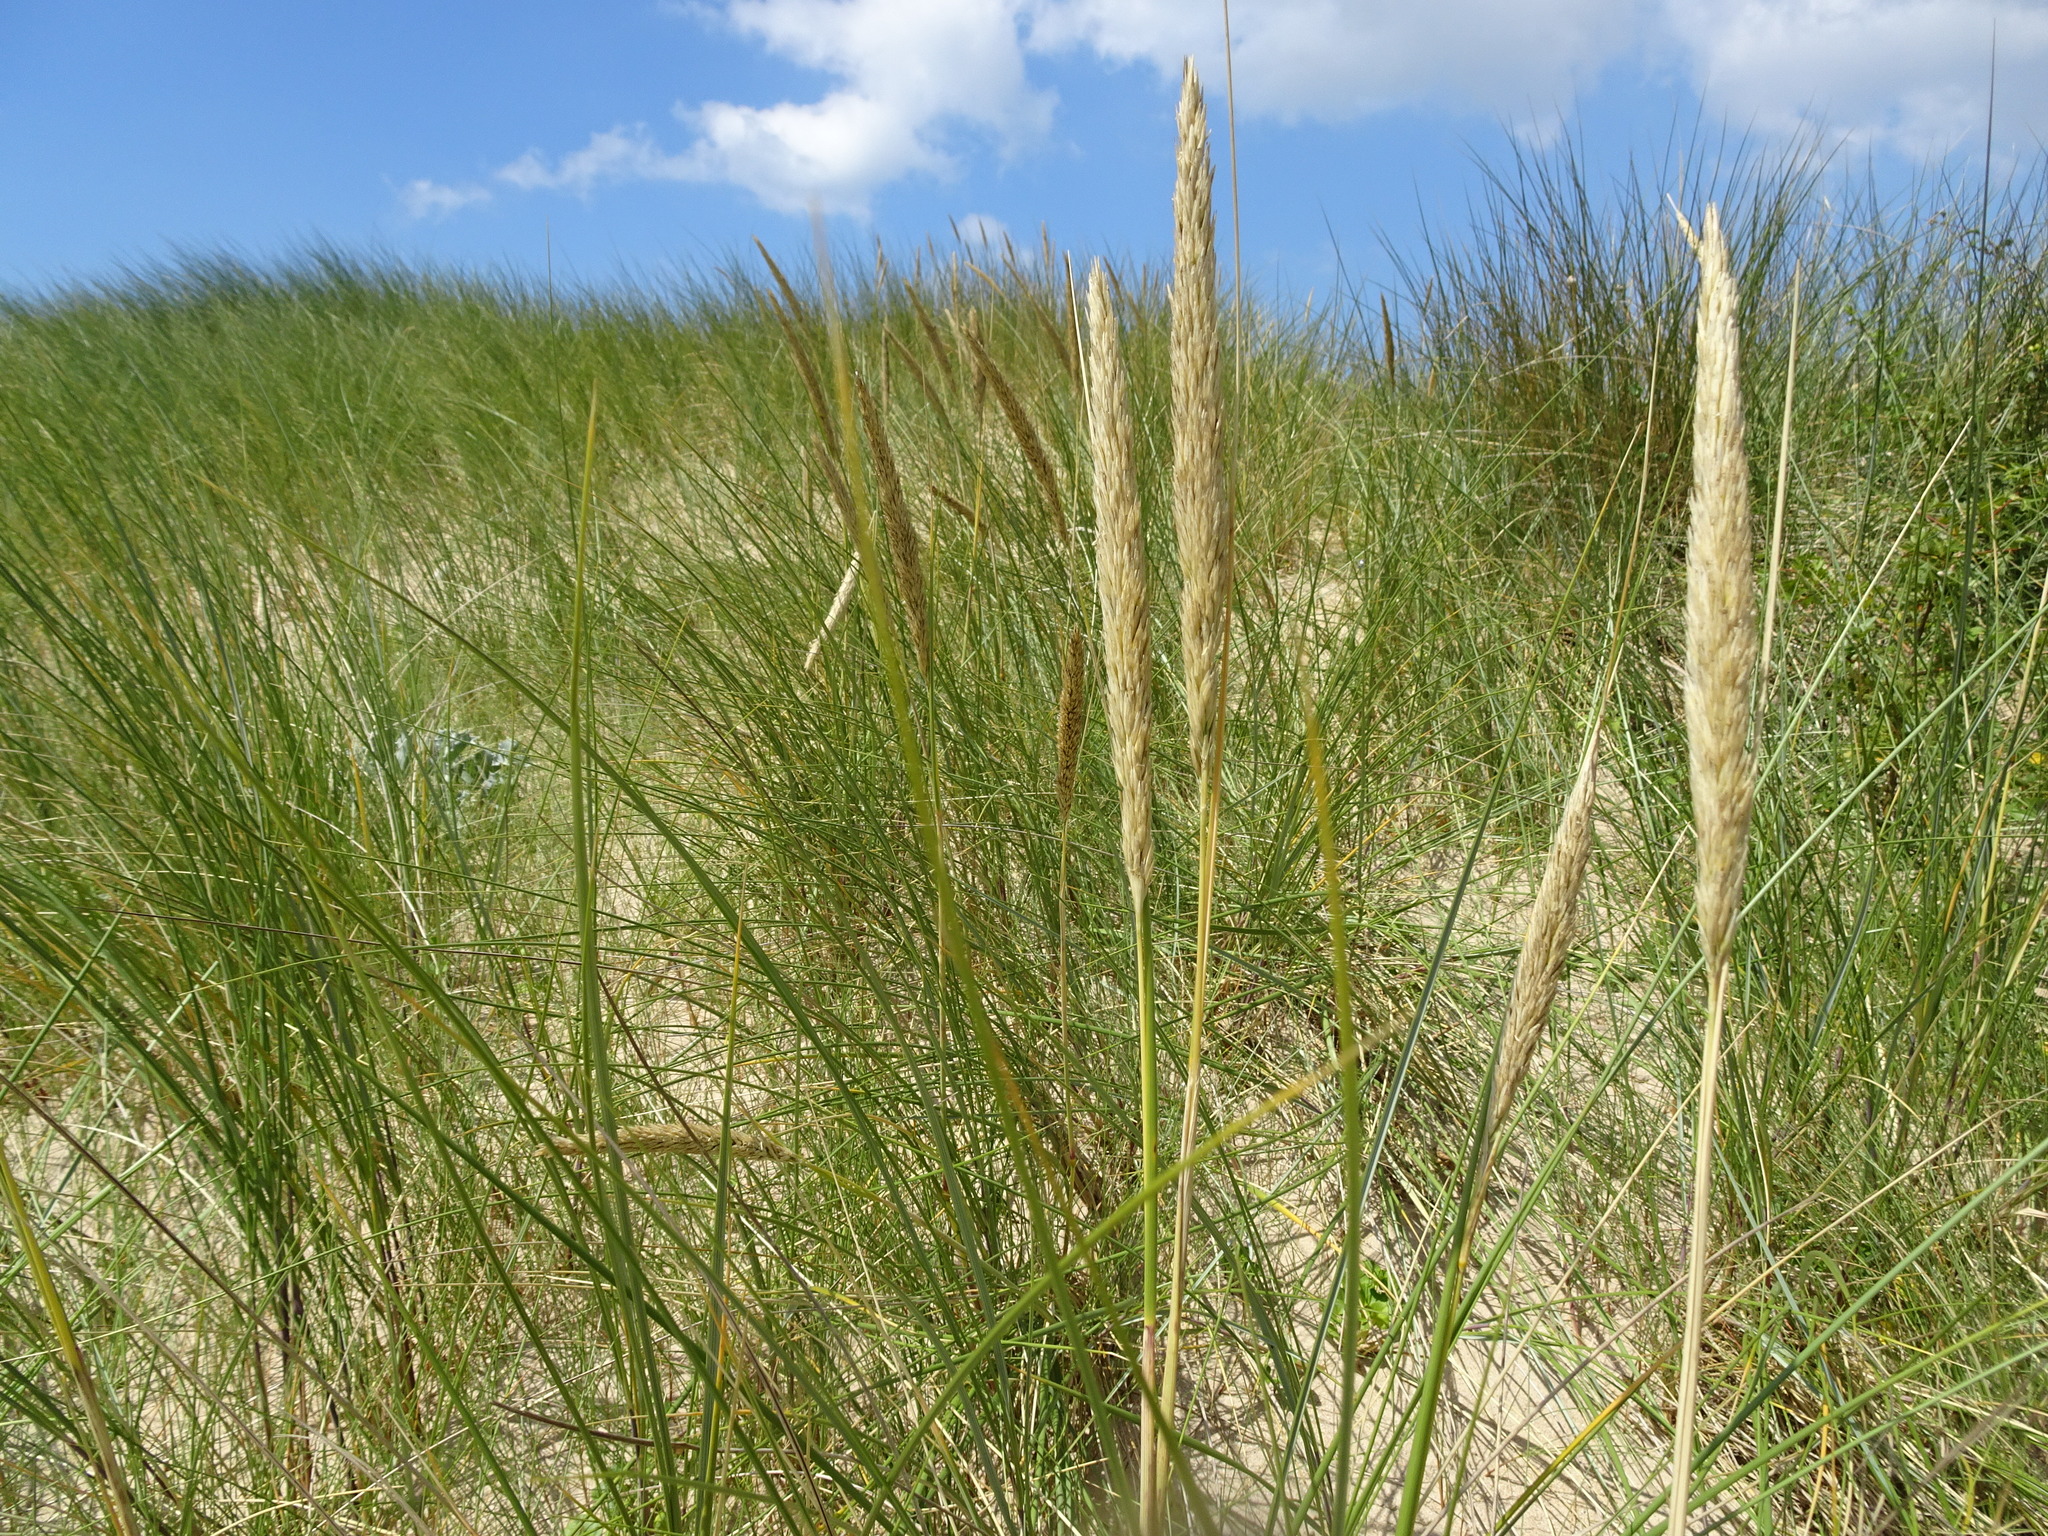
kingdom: Plantae
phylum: Tracheophyta
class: Liliopsida
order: Poales
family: Poaceae
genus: Calamagrostis
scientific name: Calamagrostis arenaria
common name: European beachgrass
